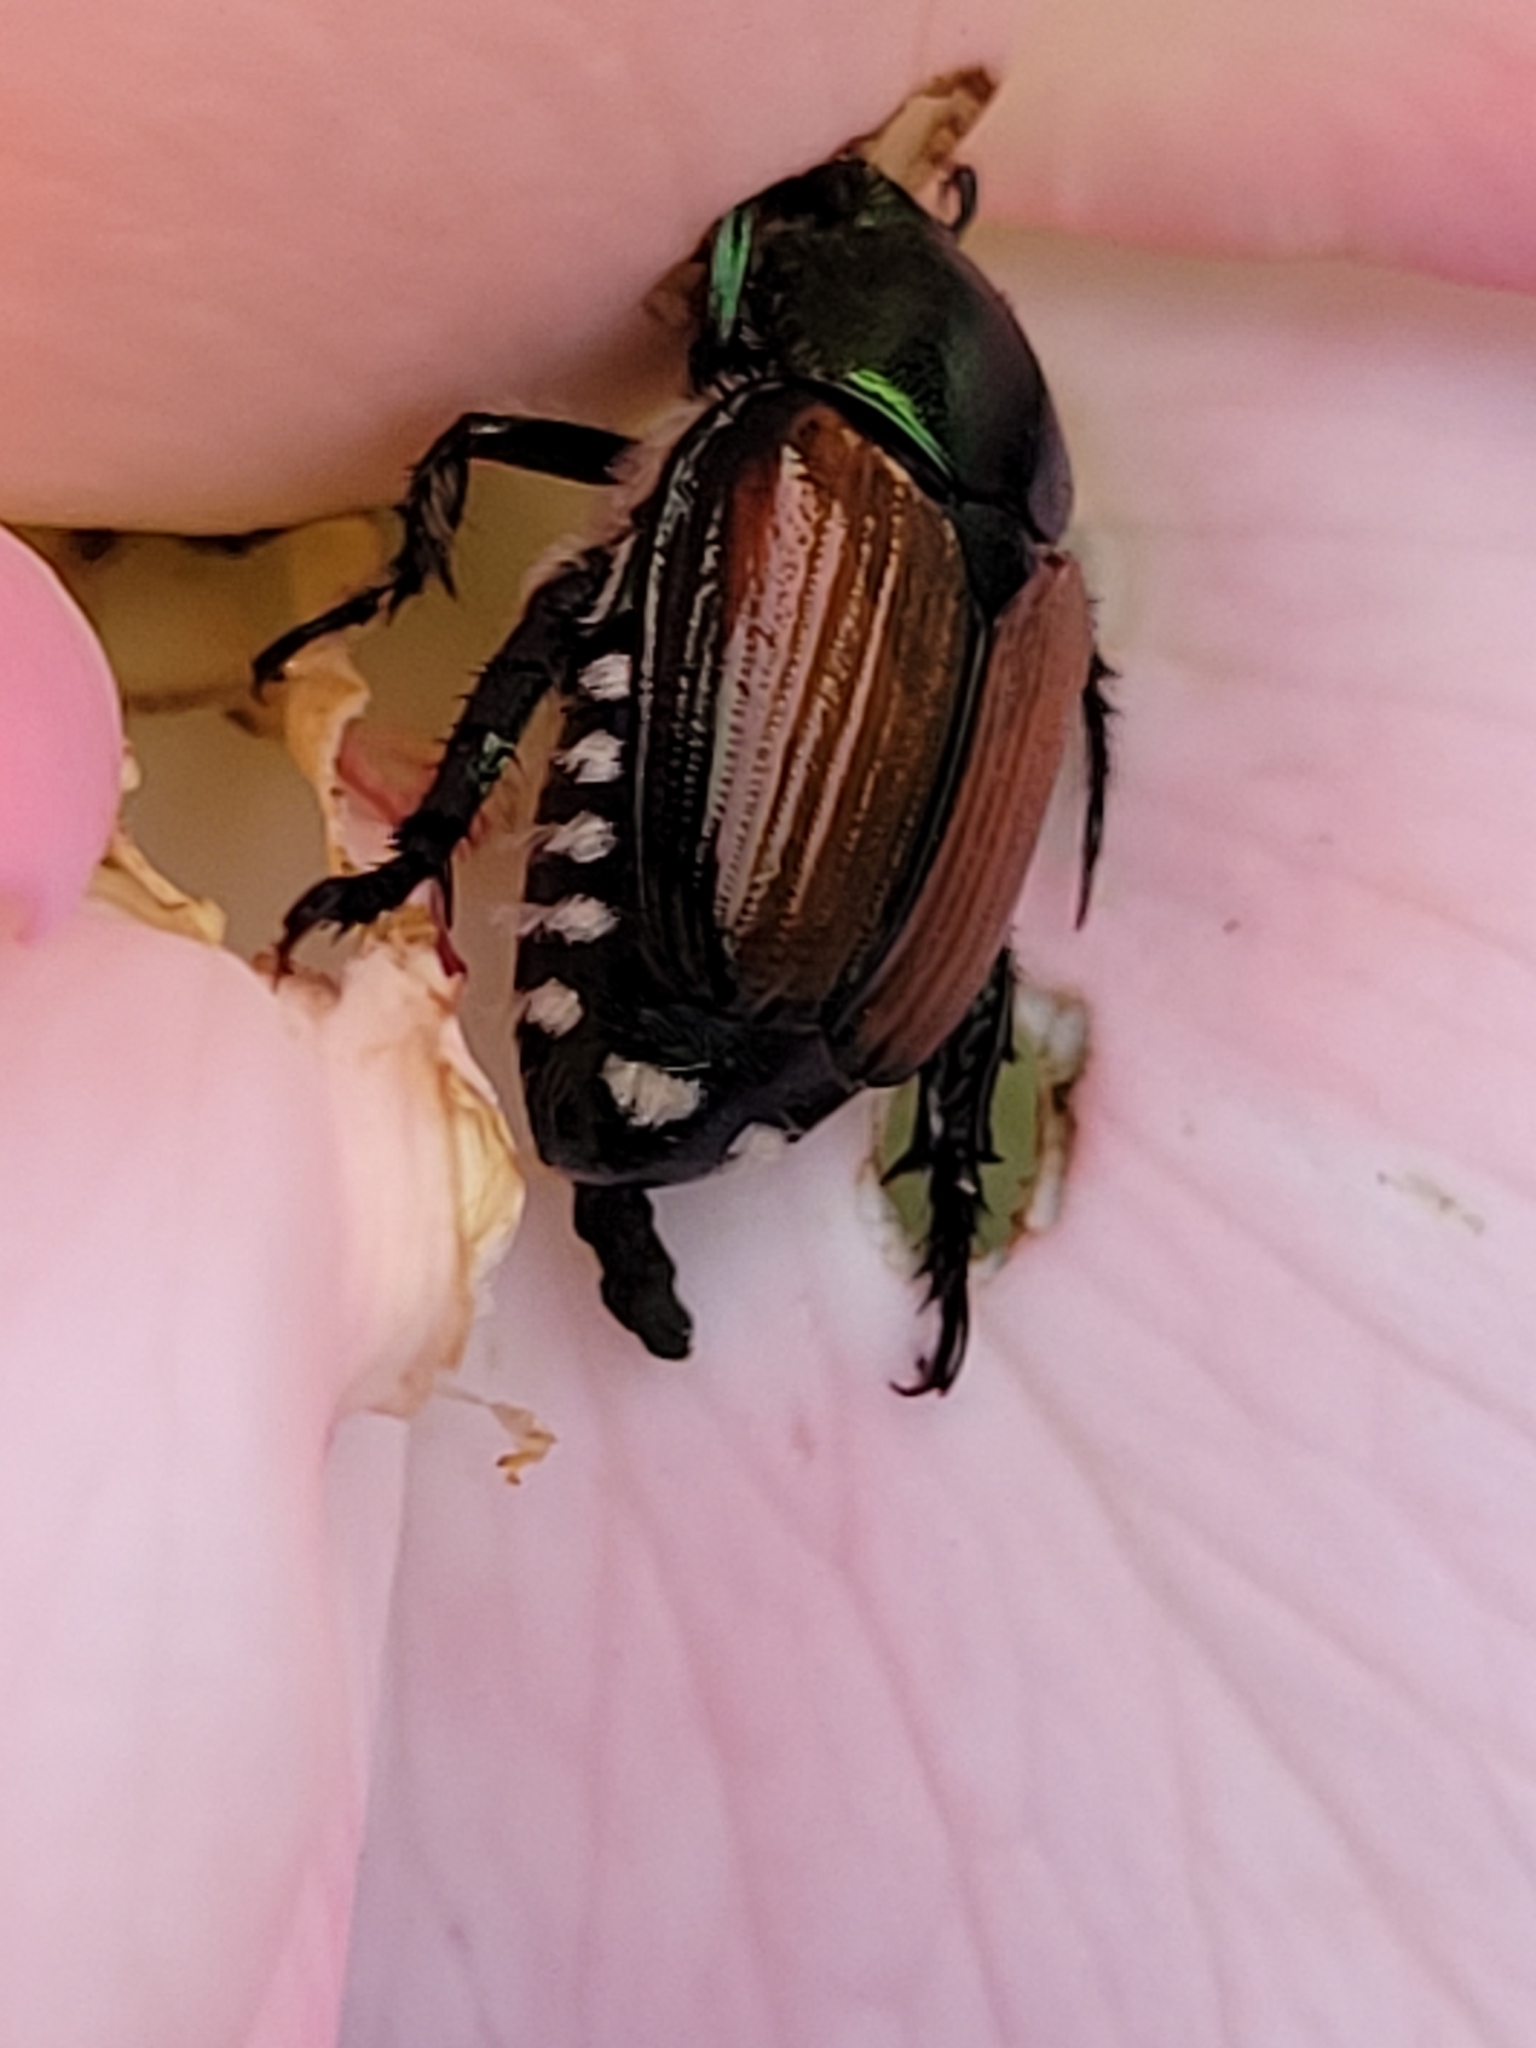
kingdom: Animalia
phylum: Arthropoda
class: Insecta
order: Coleoptera
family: Scarabaeidae
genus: Popillia
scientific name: Popillia japonica
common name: Japanese beetle
